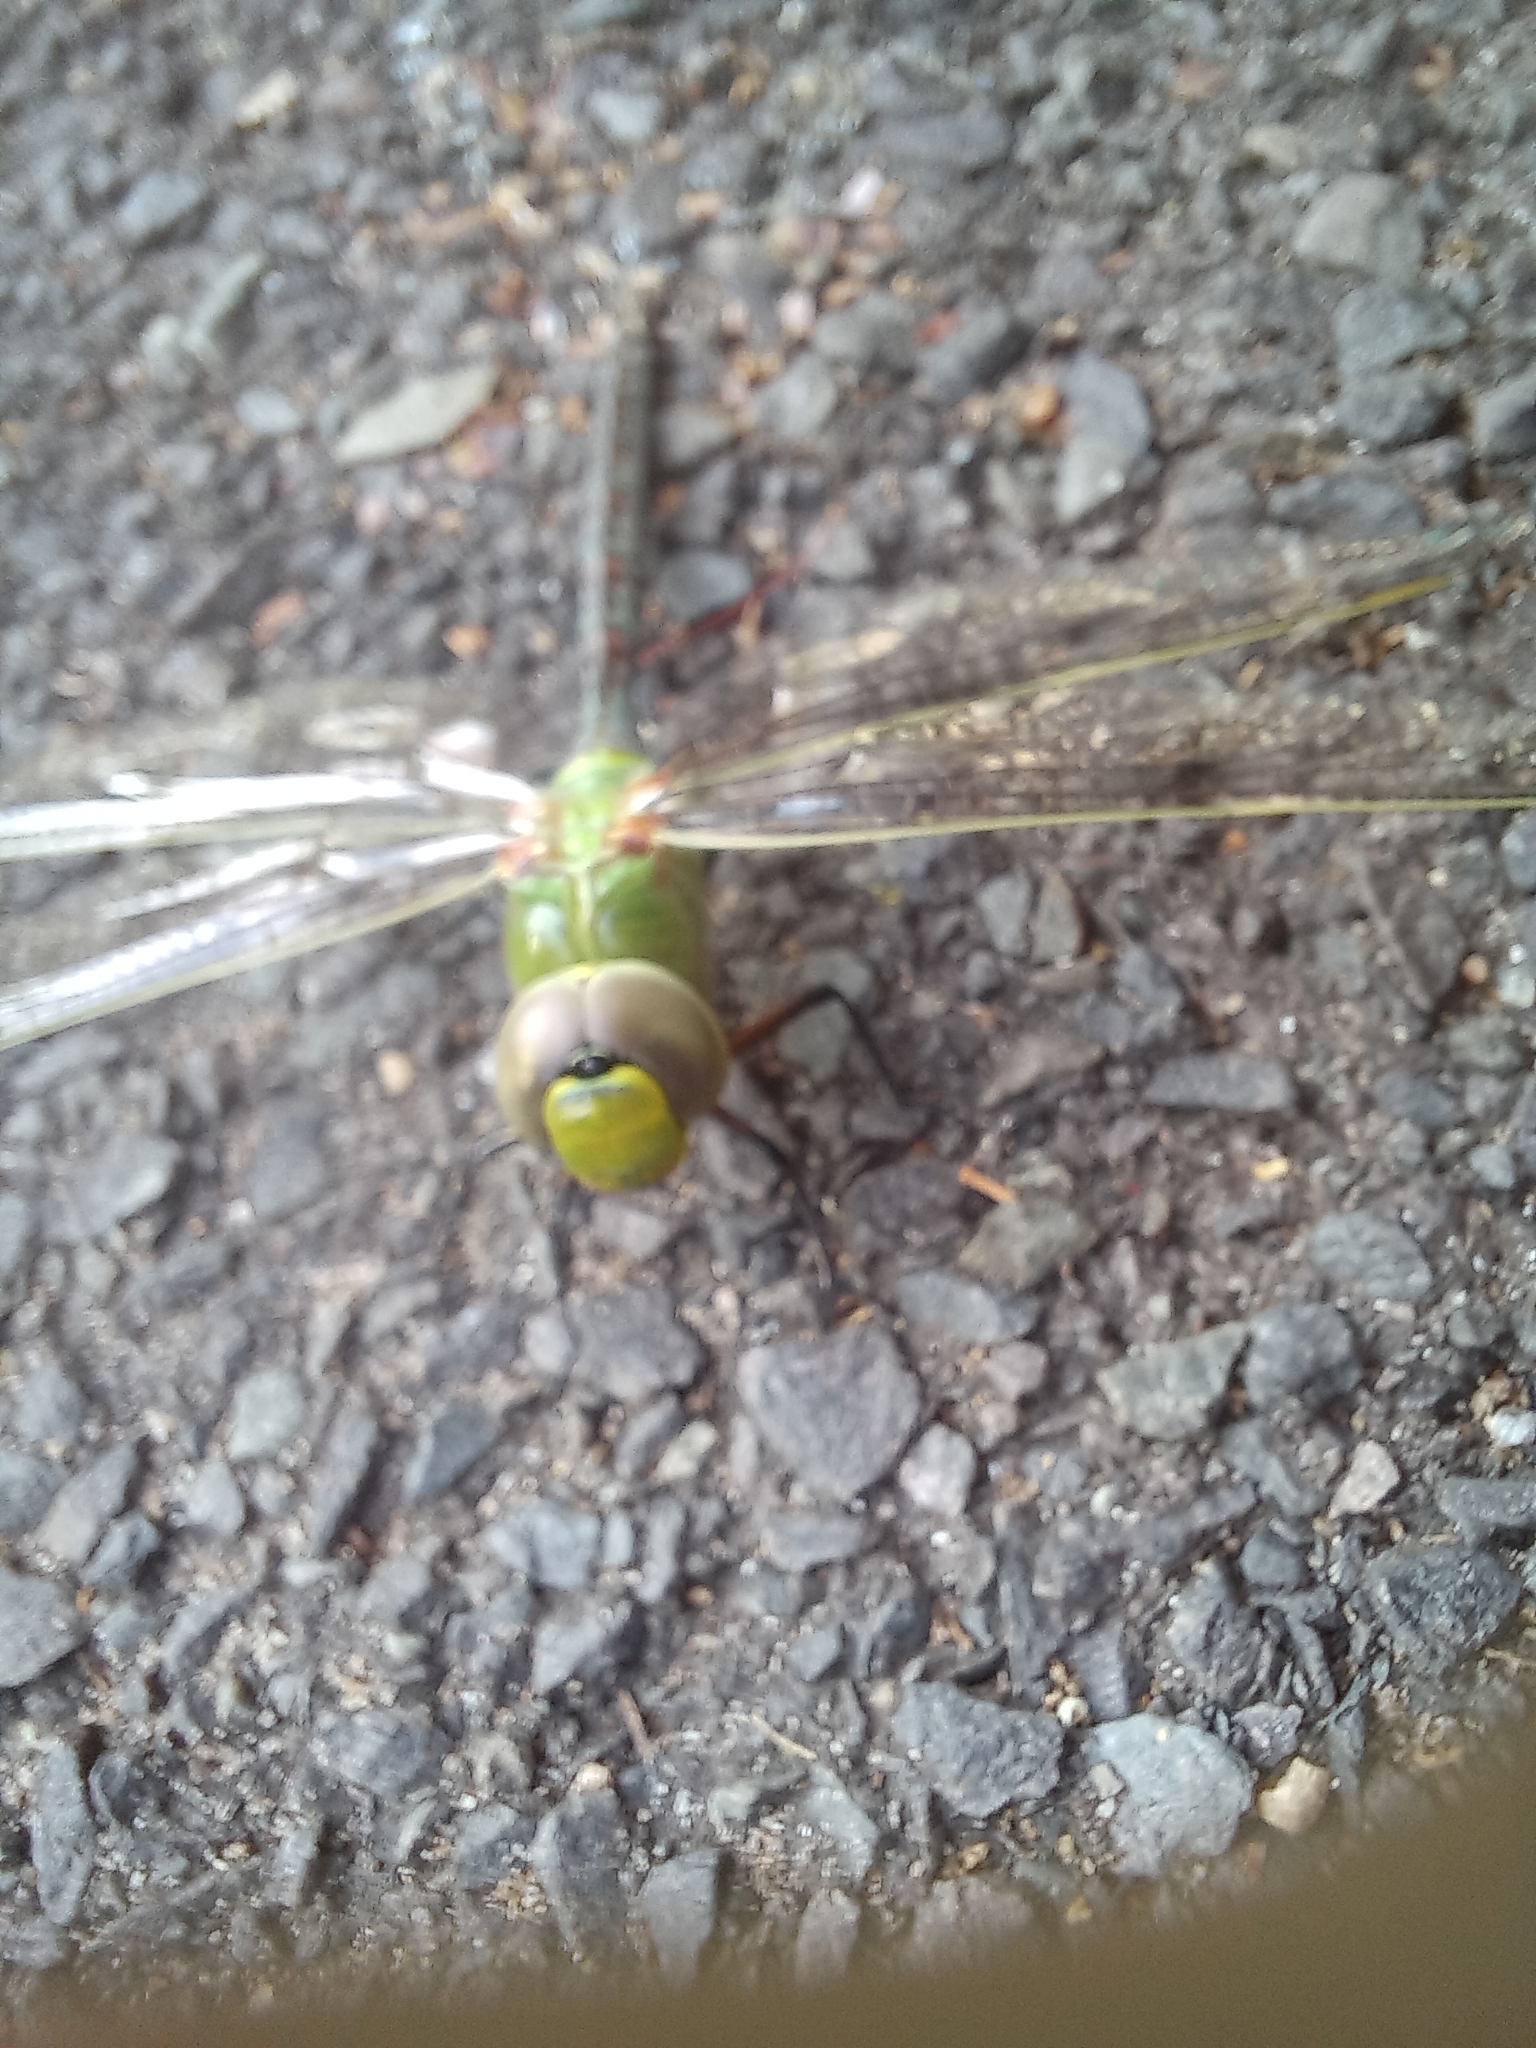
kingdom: Animalia
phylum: Arthropoda
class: Insecta
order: Odonata
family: Aeshnidae
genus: Anax
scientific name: Anax imperator
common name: Emperor dragonfly
